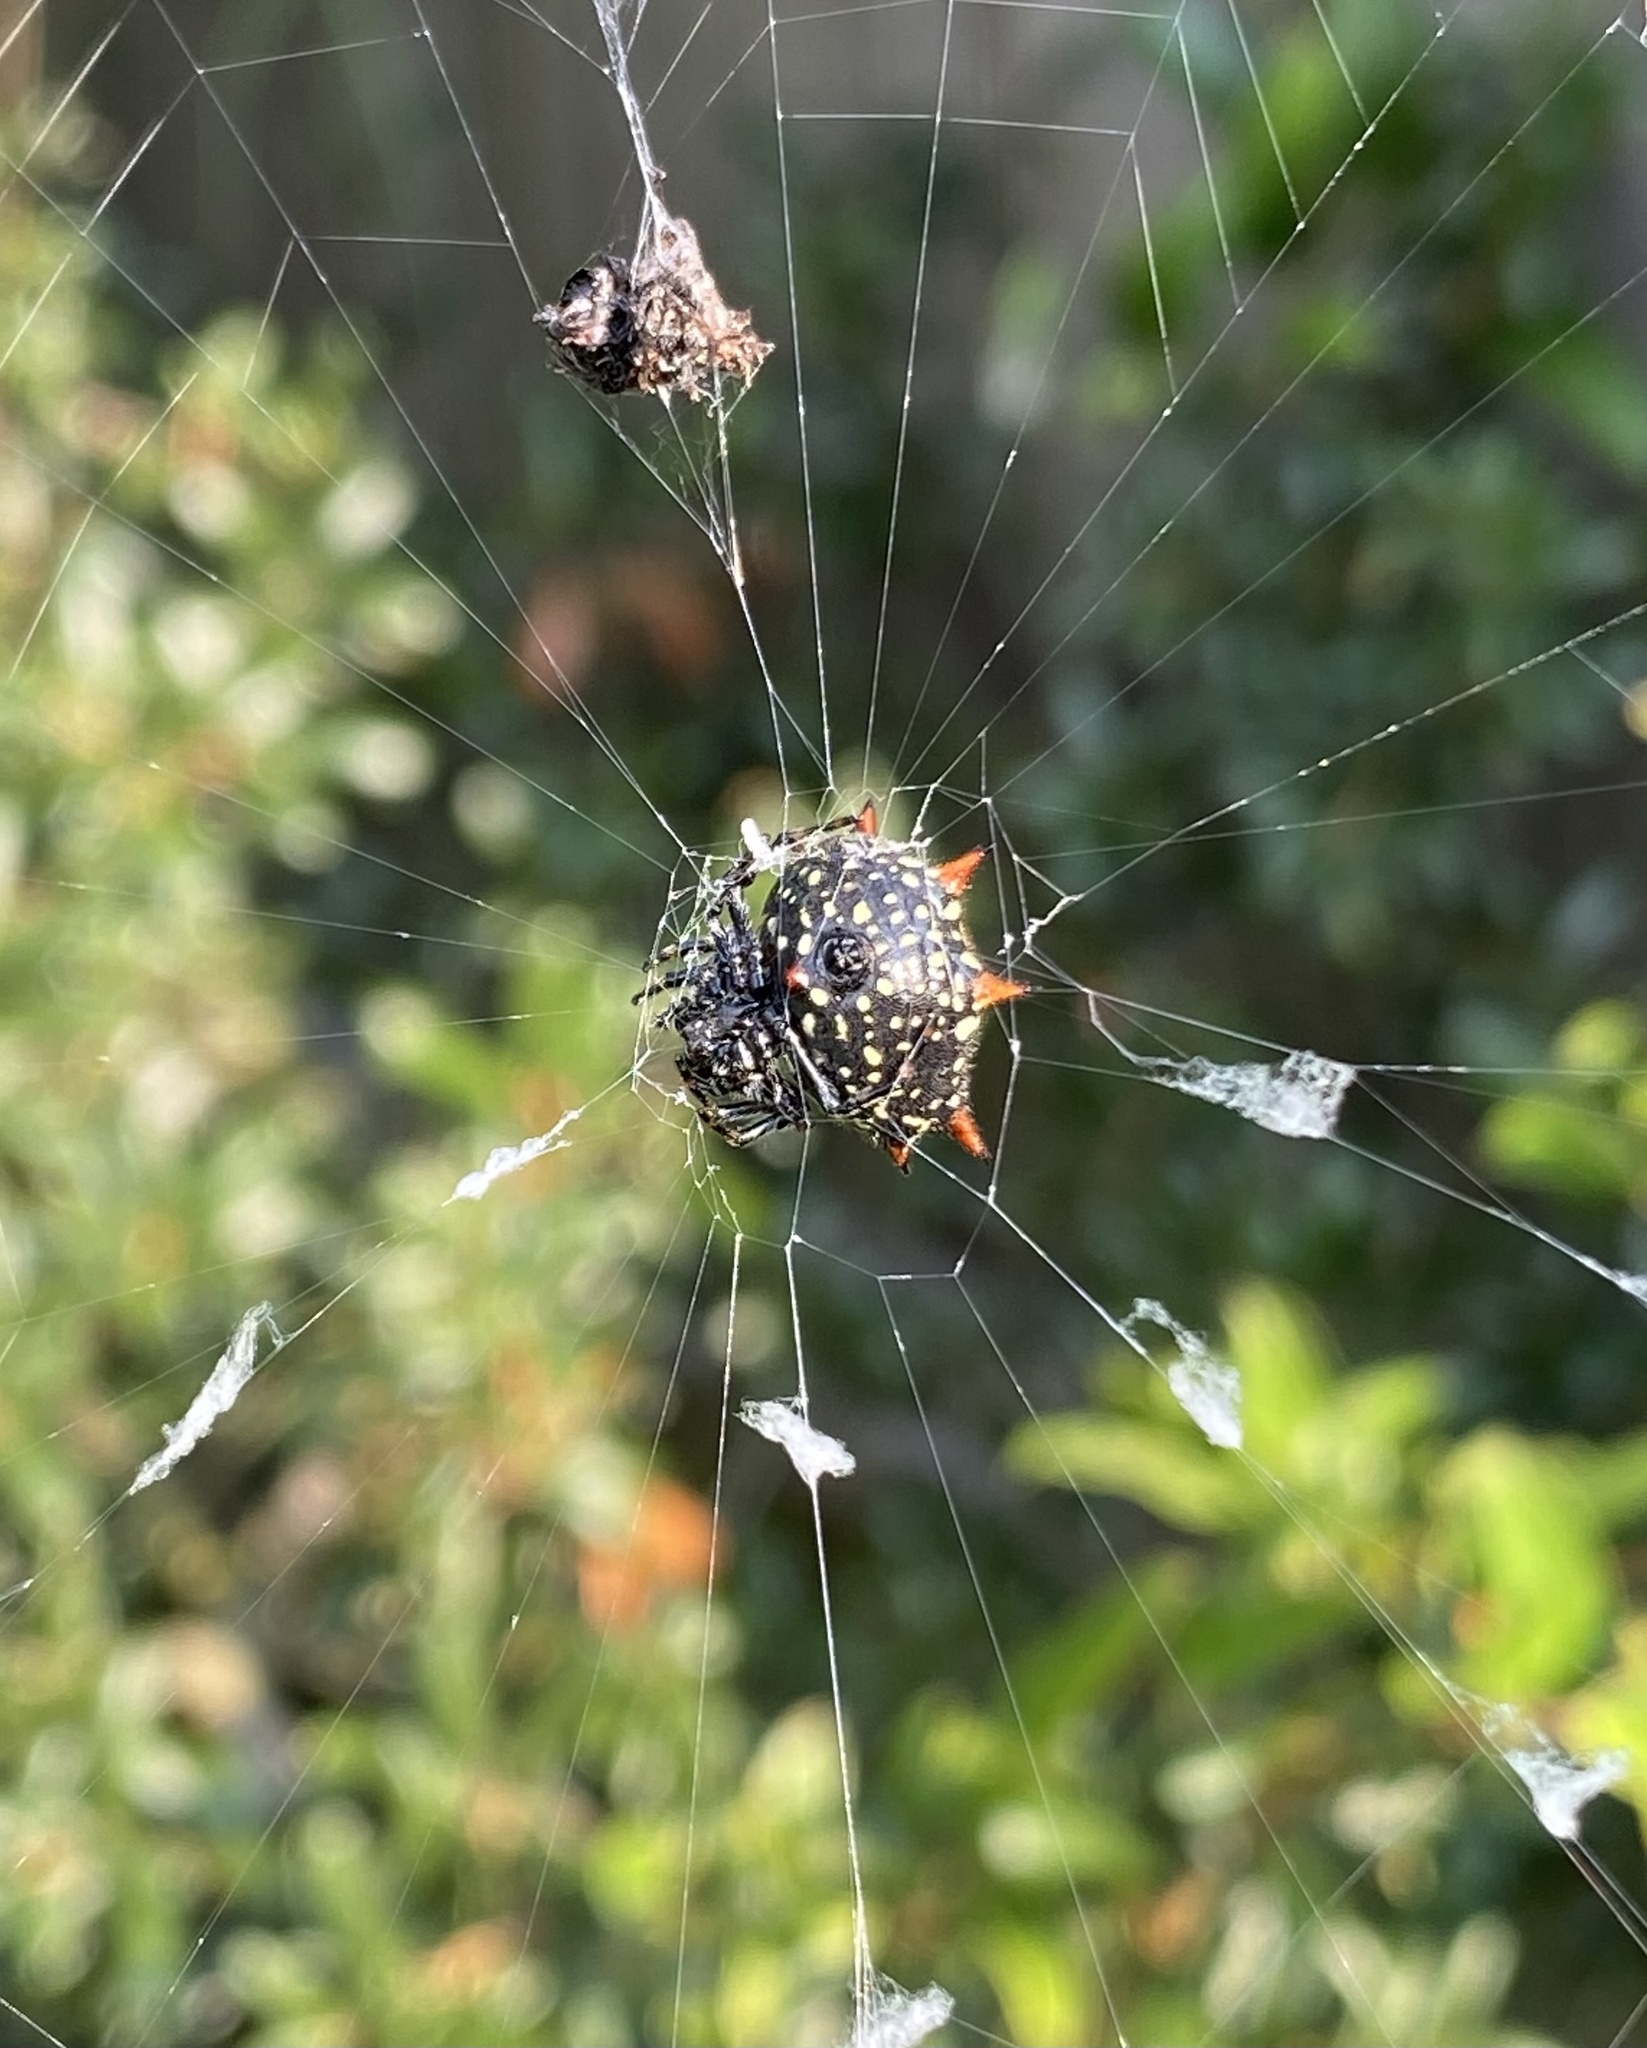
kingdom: Animalia
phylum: Arthropoda
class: Arachnida
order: Araneae
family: Araneidae
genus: Gasteracantha
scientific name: Gasteracantha cancriformis
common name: Orb weavers
